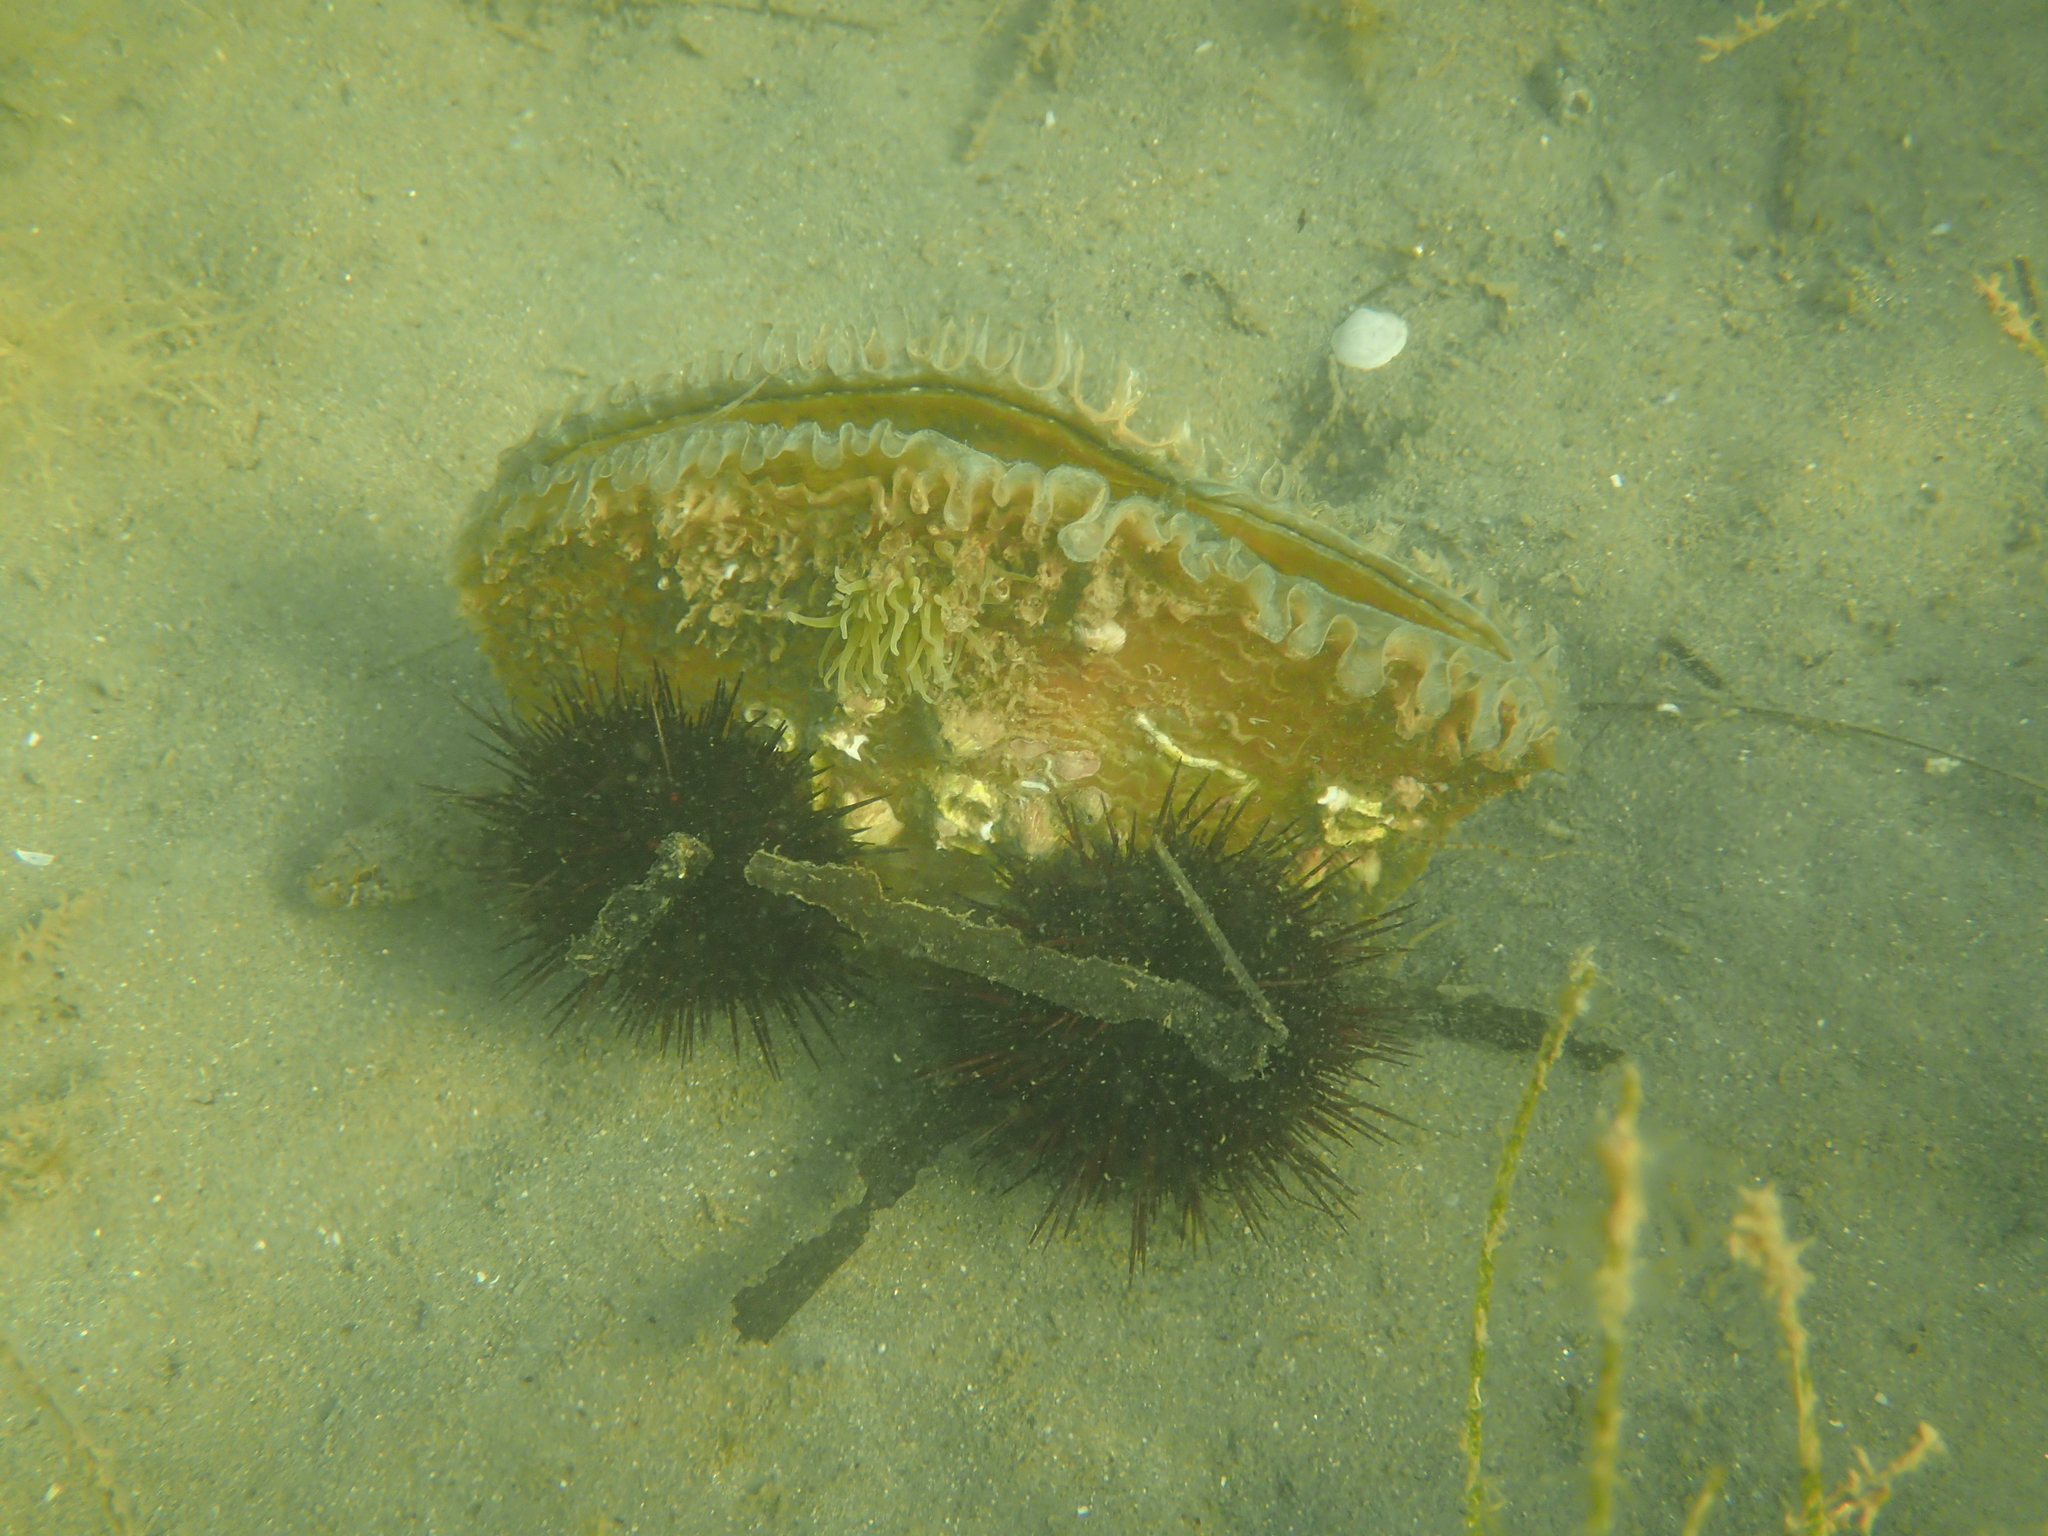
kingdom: Animalia
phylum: Mollusca
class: Bivalvia
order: Ostreida
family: Pinnidae
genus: Pinna
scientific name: Pinna nobilis
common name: Fan mussel
